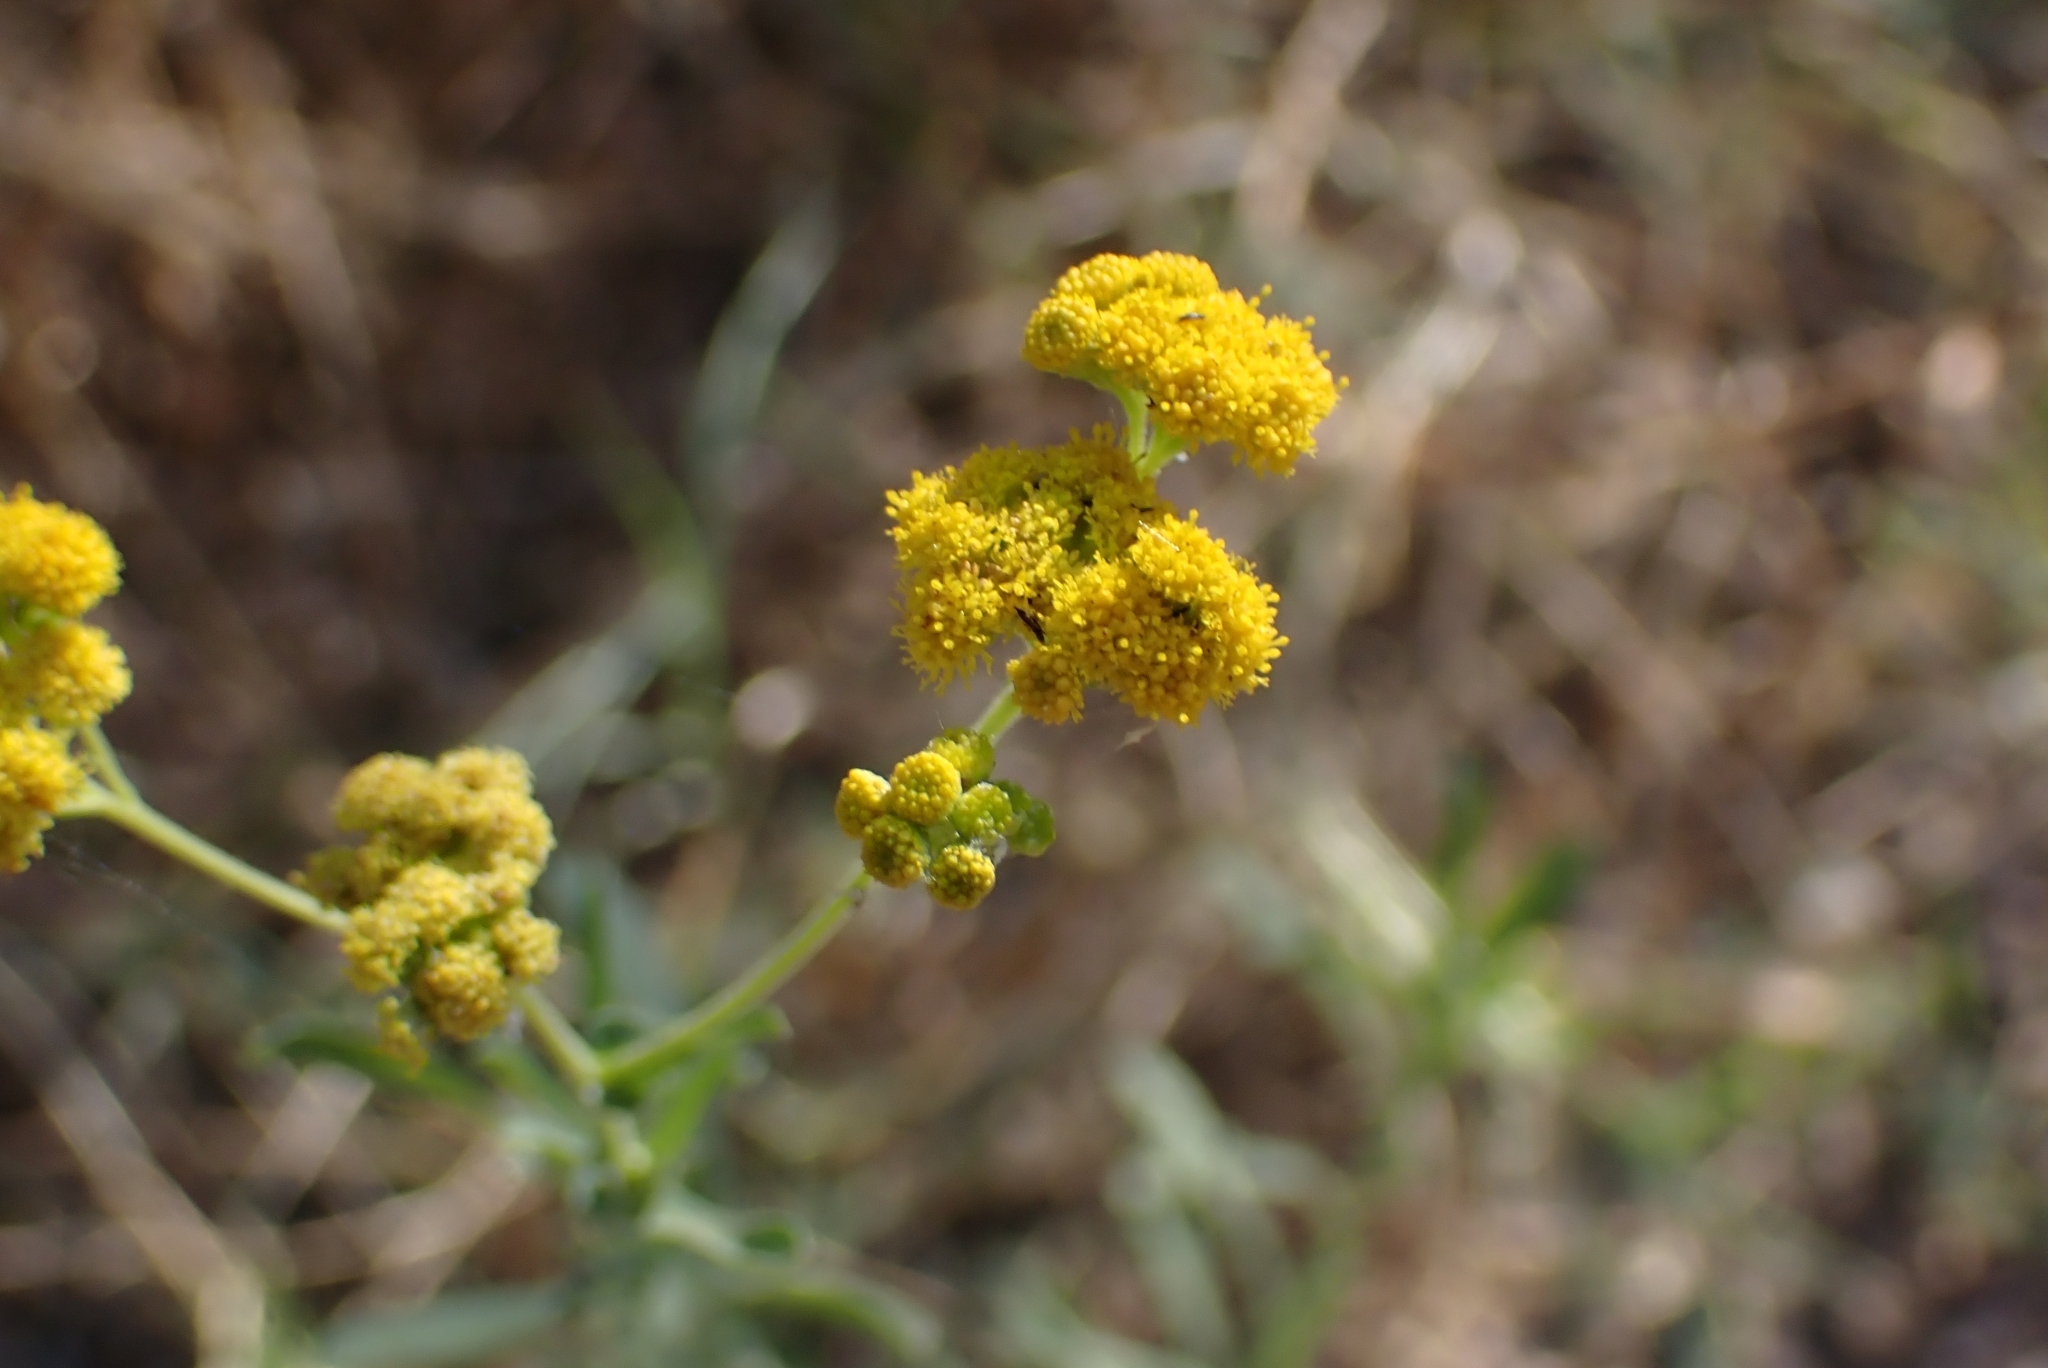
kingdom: Plantae
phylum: Tracheophyta
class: Magnoliopsida
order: Asterales
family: Asteraceae
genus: Nidorella
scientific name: Nidorella resedifolia
